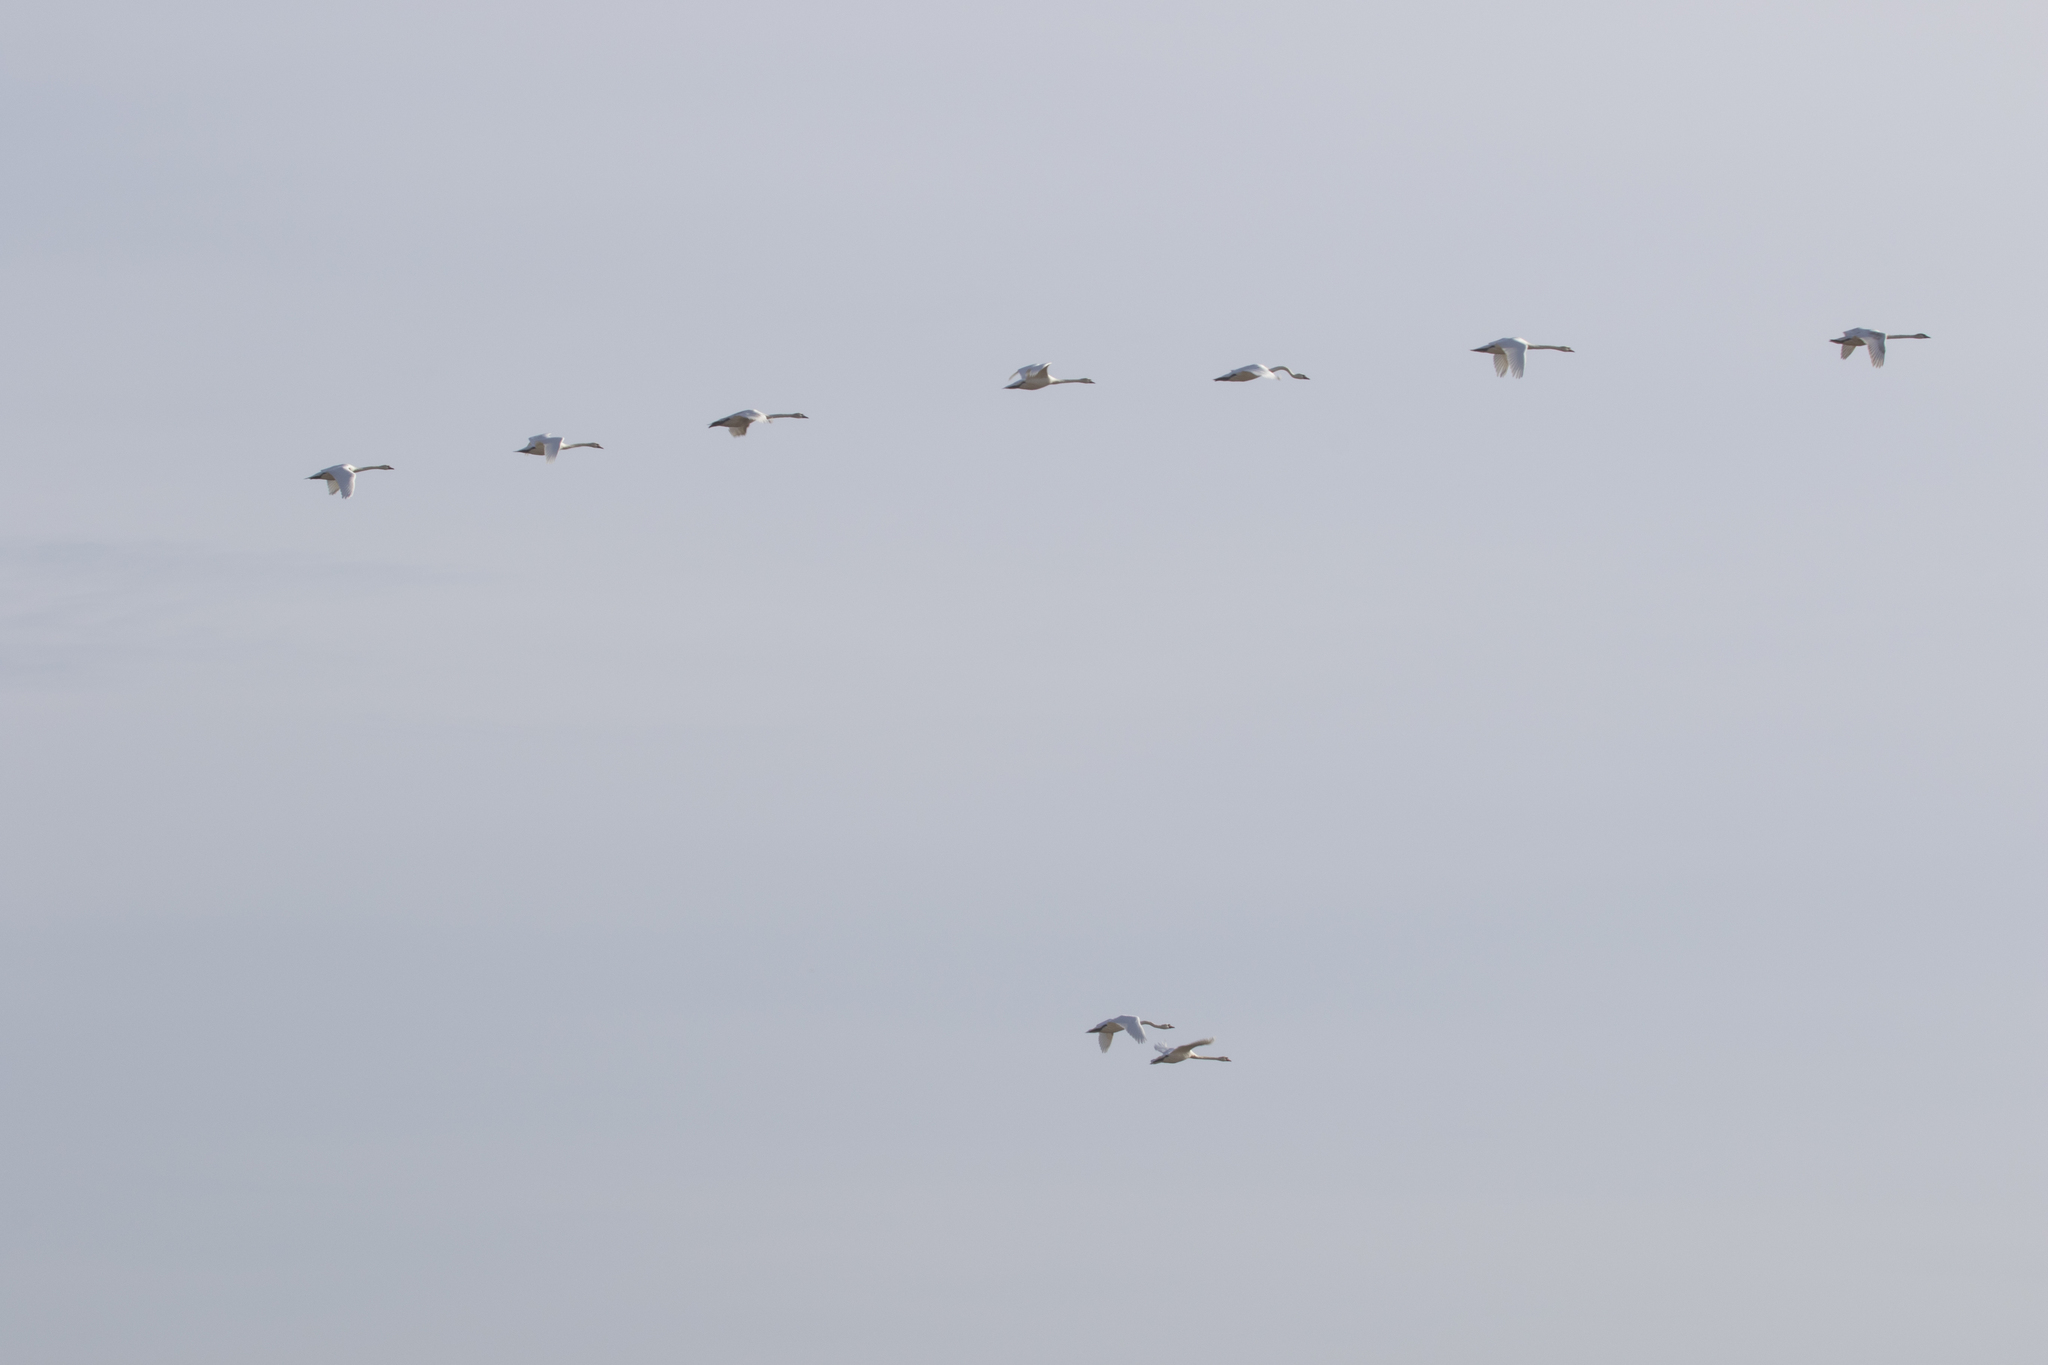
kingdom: Animalia
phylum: Chordata
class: Aves
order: Anseriformes
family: Anatidae
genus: Cygnus
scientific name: Cygnus olor
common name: Mute swan
